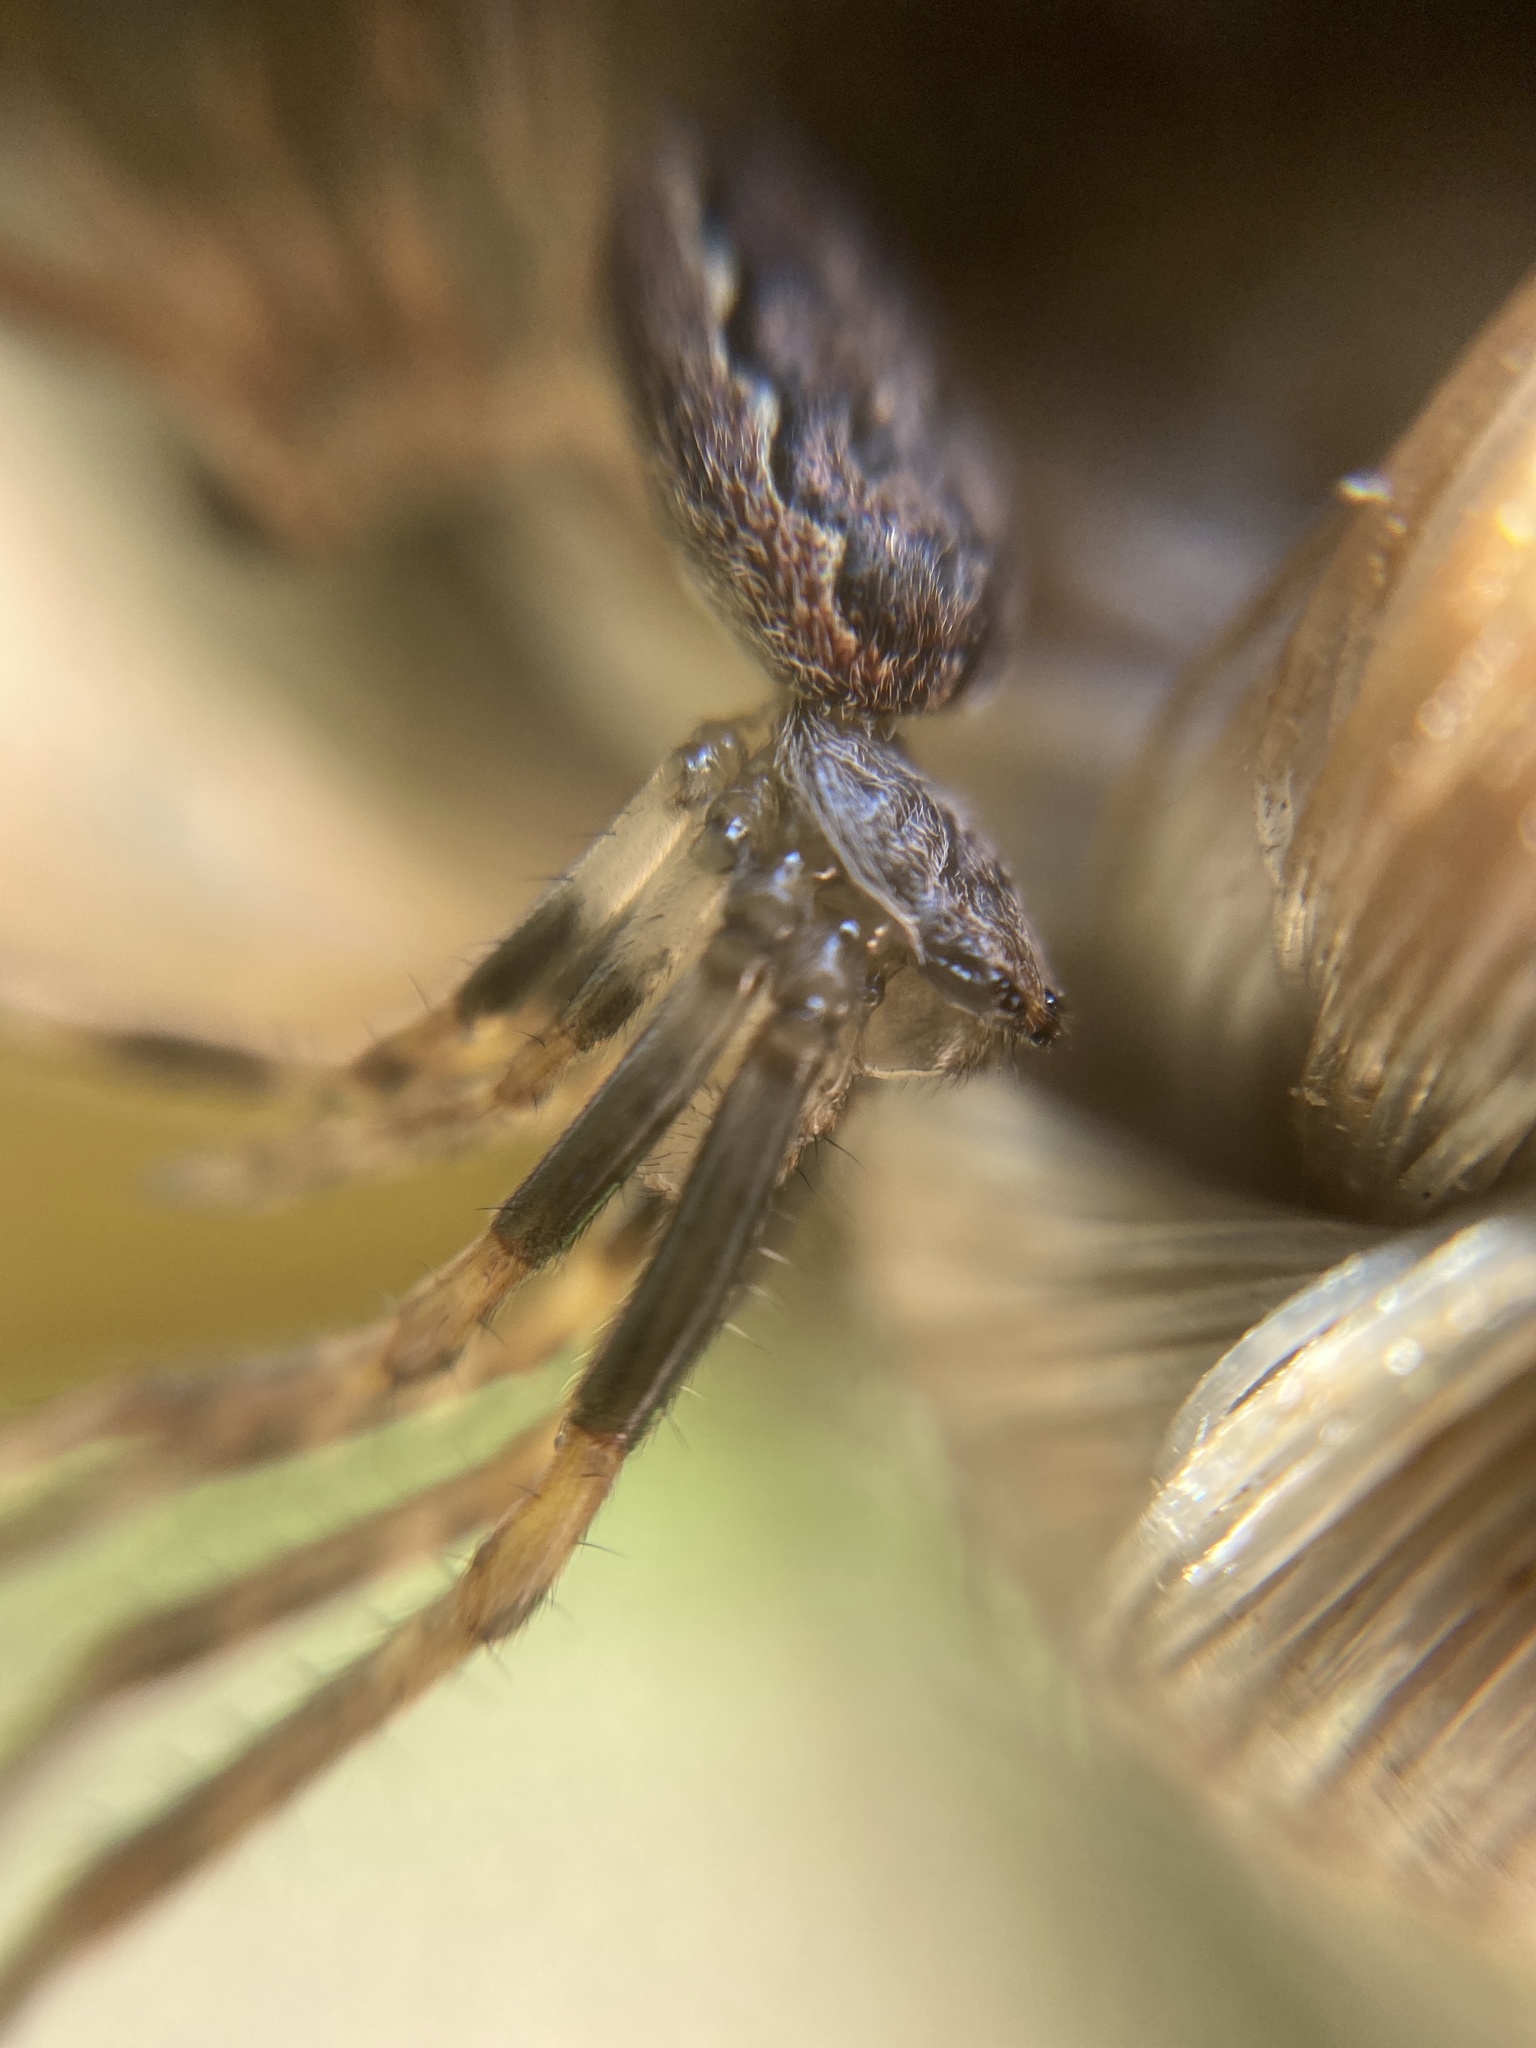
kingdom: Animalia
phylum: Arthropoda
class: Arachnida
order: Araneae
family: Araneidae
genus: Nuctenea
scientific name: Nuctenea umbratica
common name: Toad spider
